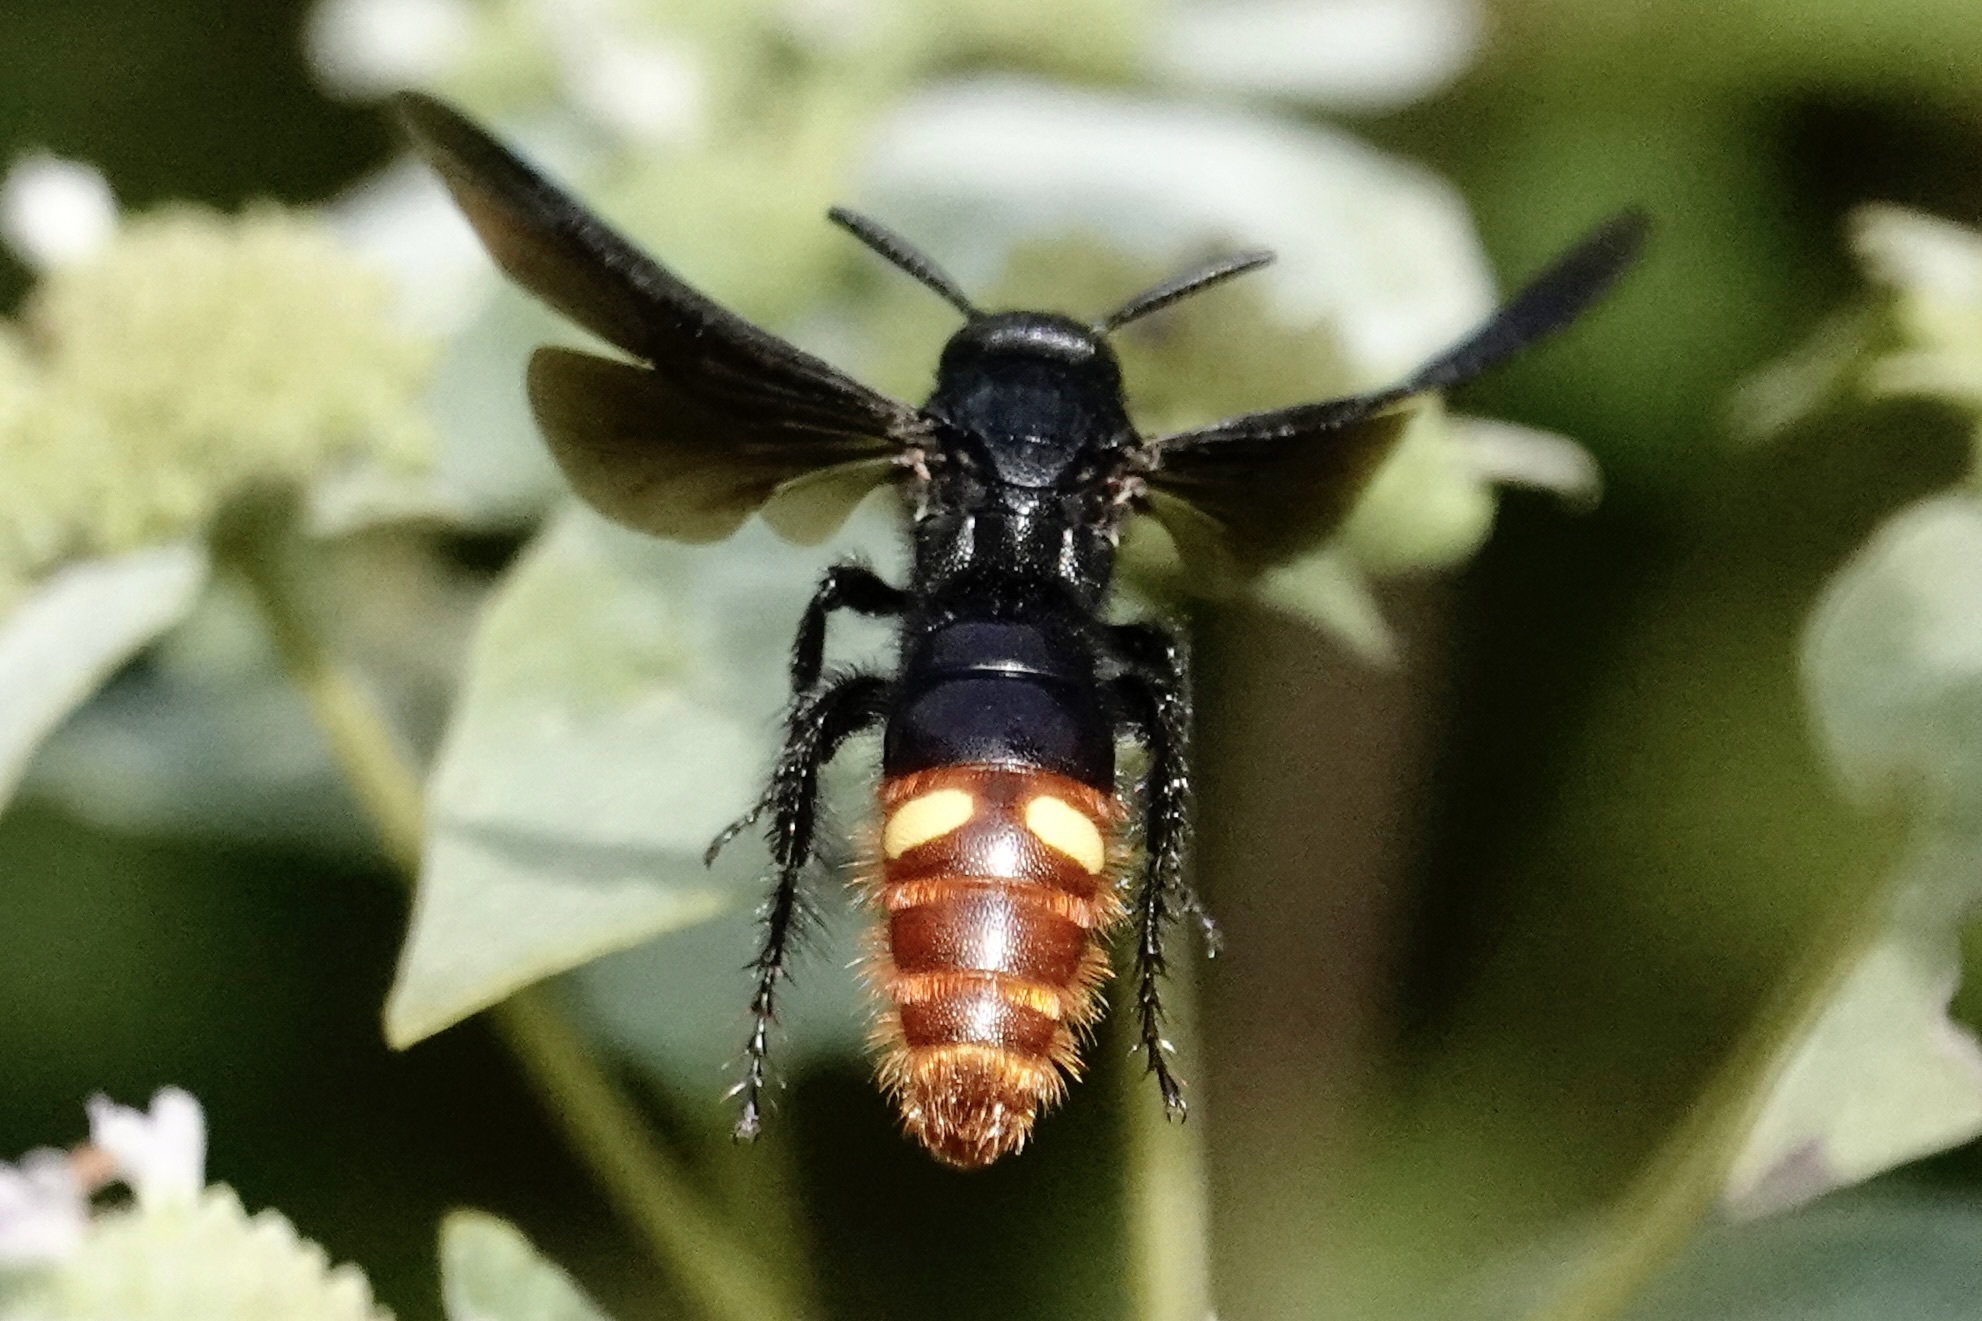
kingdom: Animalia
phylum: Arthropoda
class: Insecta
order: Hymenoptera
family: Scoliidae
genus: Scolia
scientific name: Scolia dubia
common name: Blue-winged scoliid wasp
